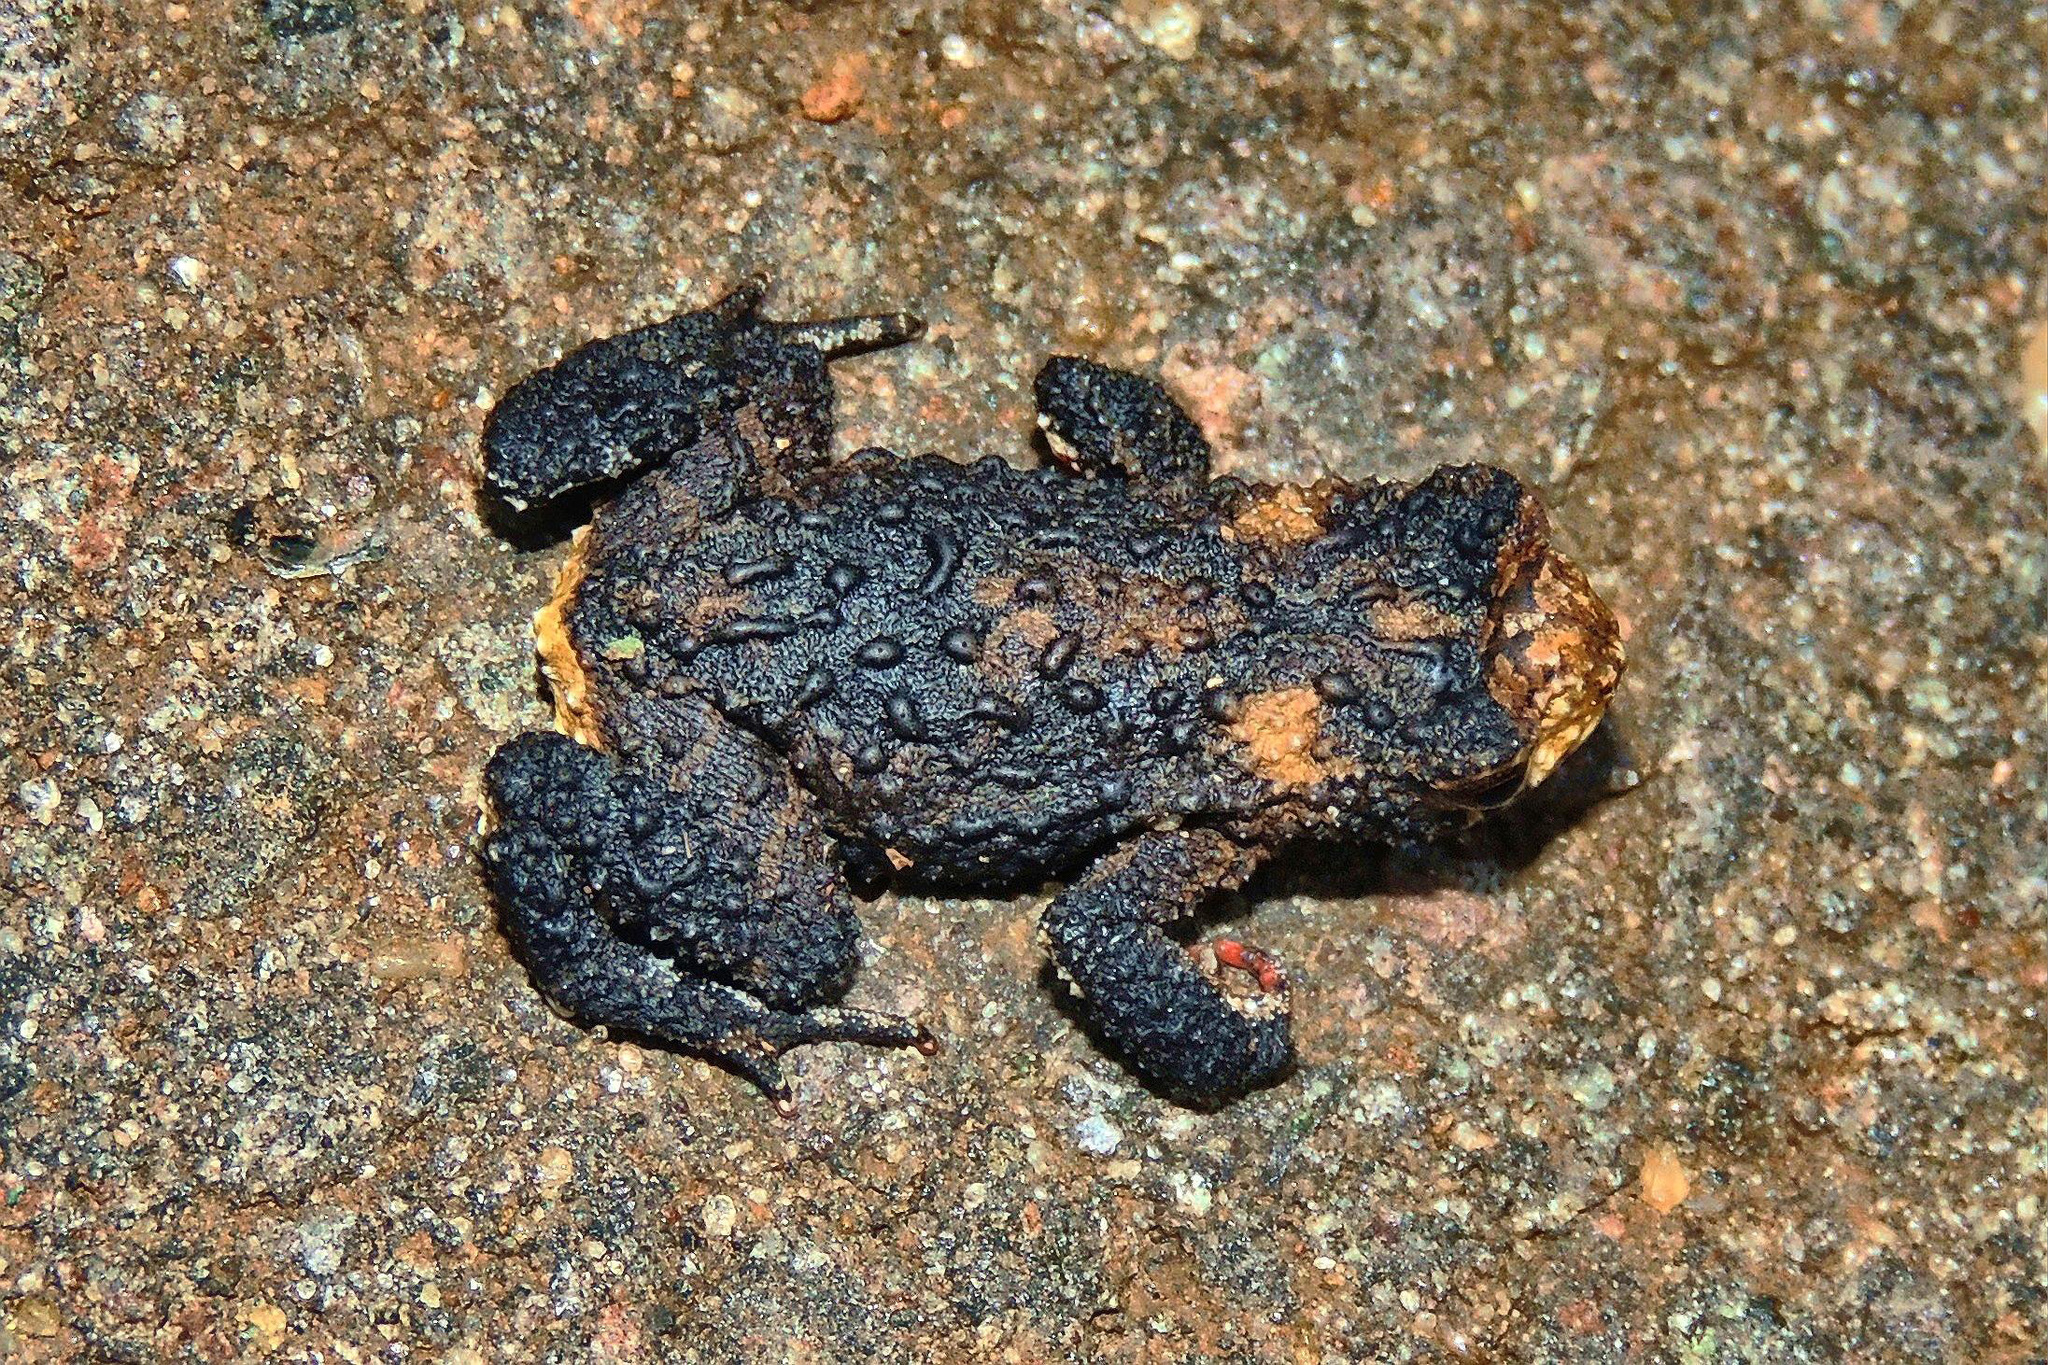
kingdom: Animalia
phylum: Chordata
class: Amphibia
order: Anura
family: Bufonidae
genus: Melanophryniscus
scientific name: Melanophryniscus devincenzii
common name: Rivera redbelly toad
